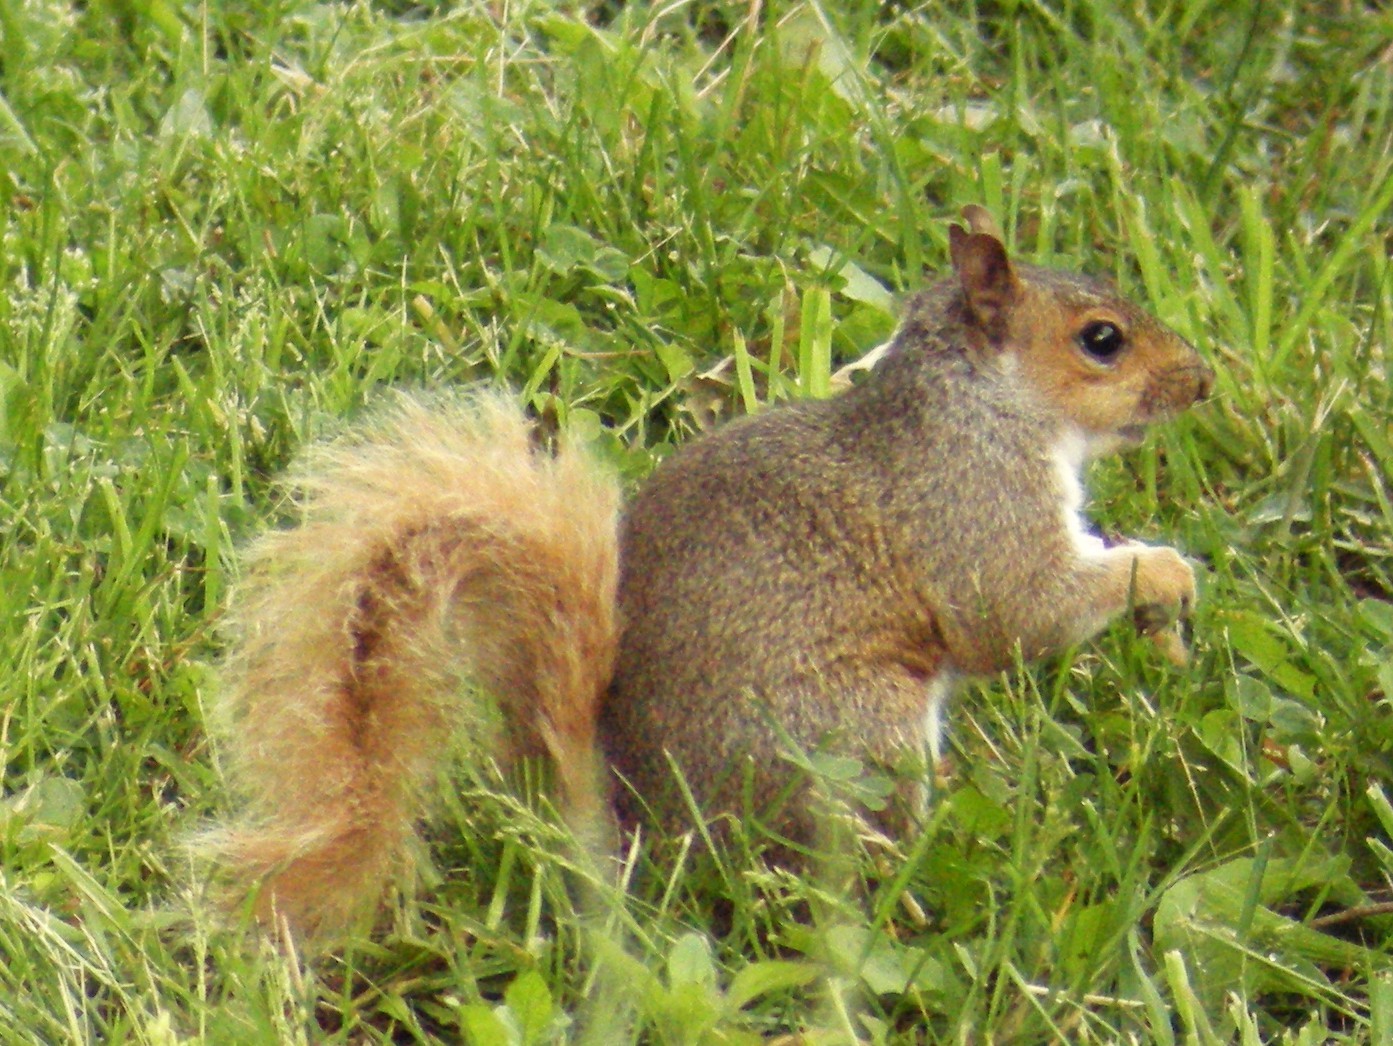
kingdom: Animalia
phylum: Chordata
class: Mammalia
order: Rodentia
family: Sciuridae
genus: Sciurus
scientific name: Sciurus carolinensis
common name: Eastern gray squirrel
